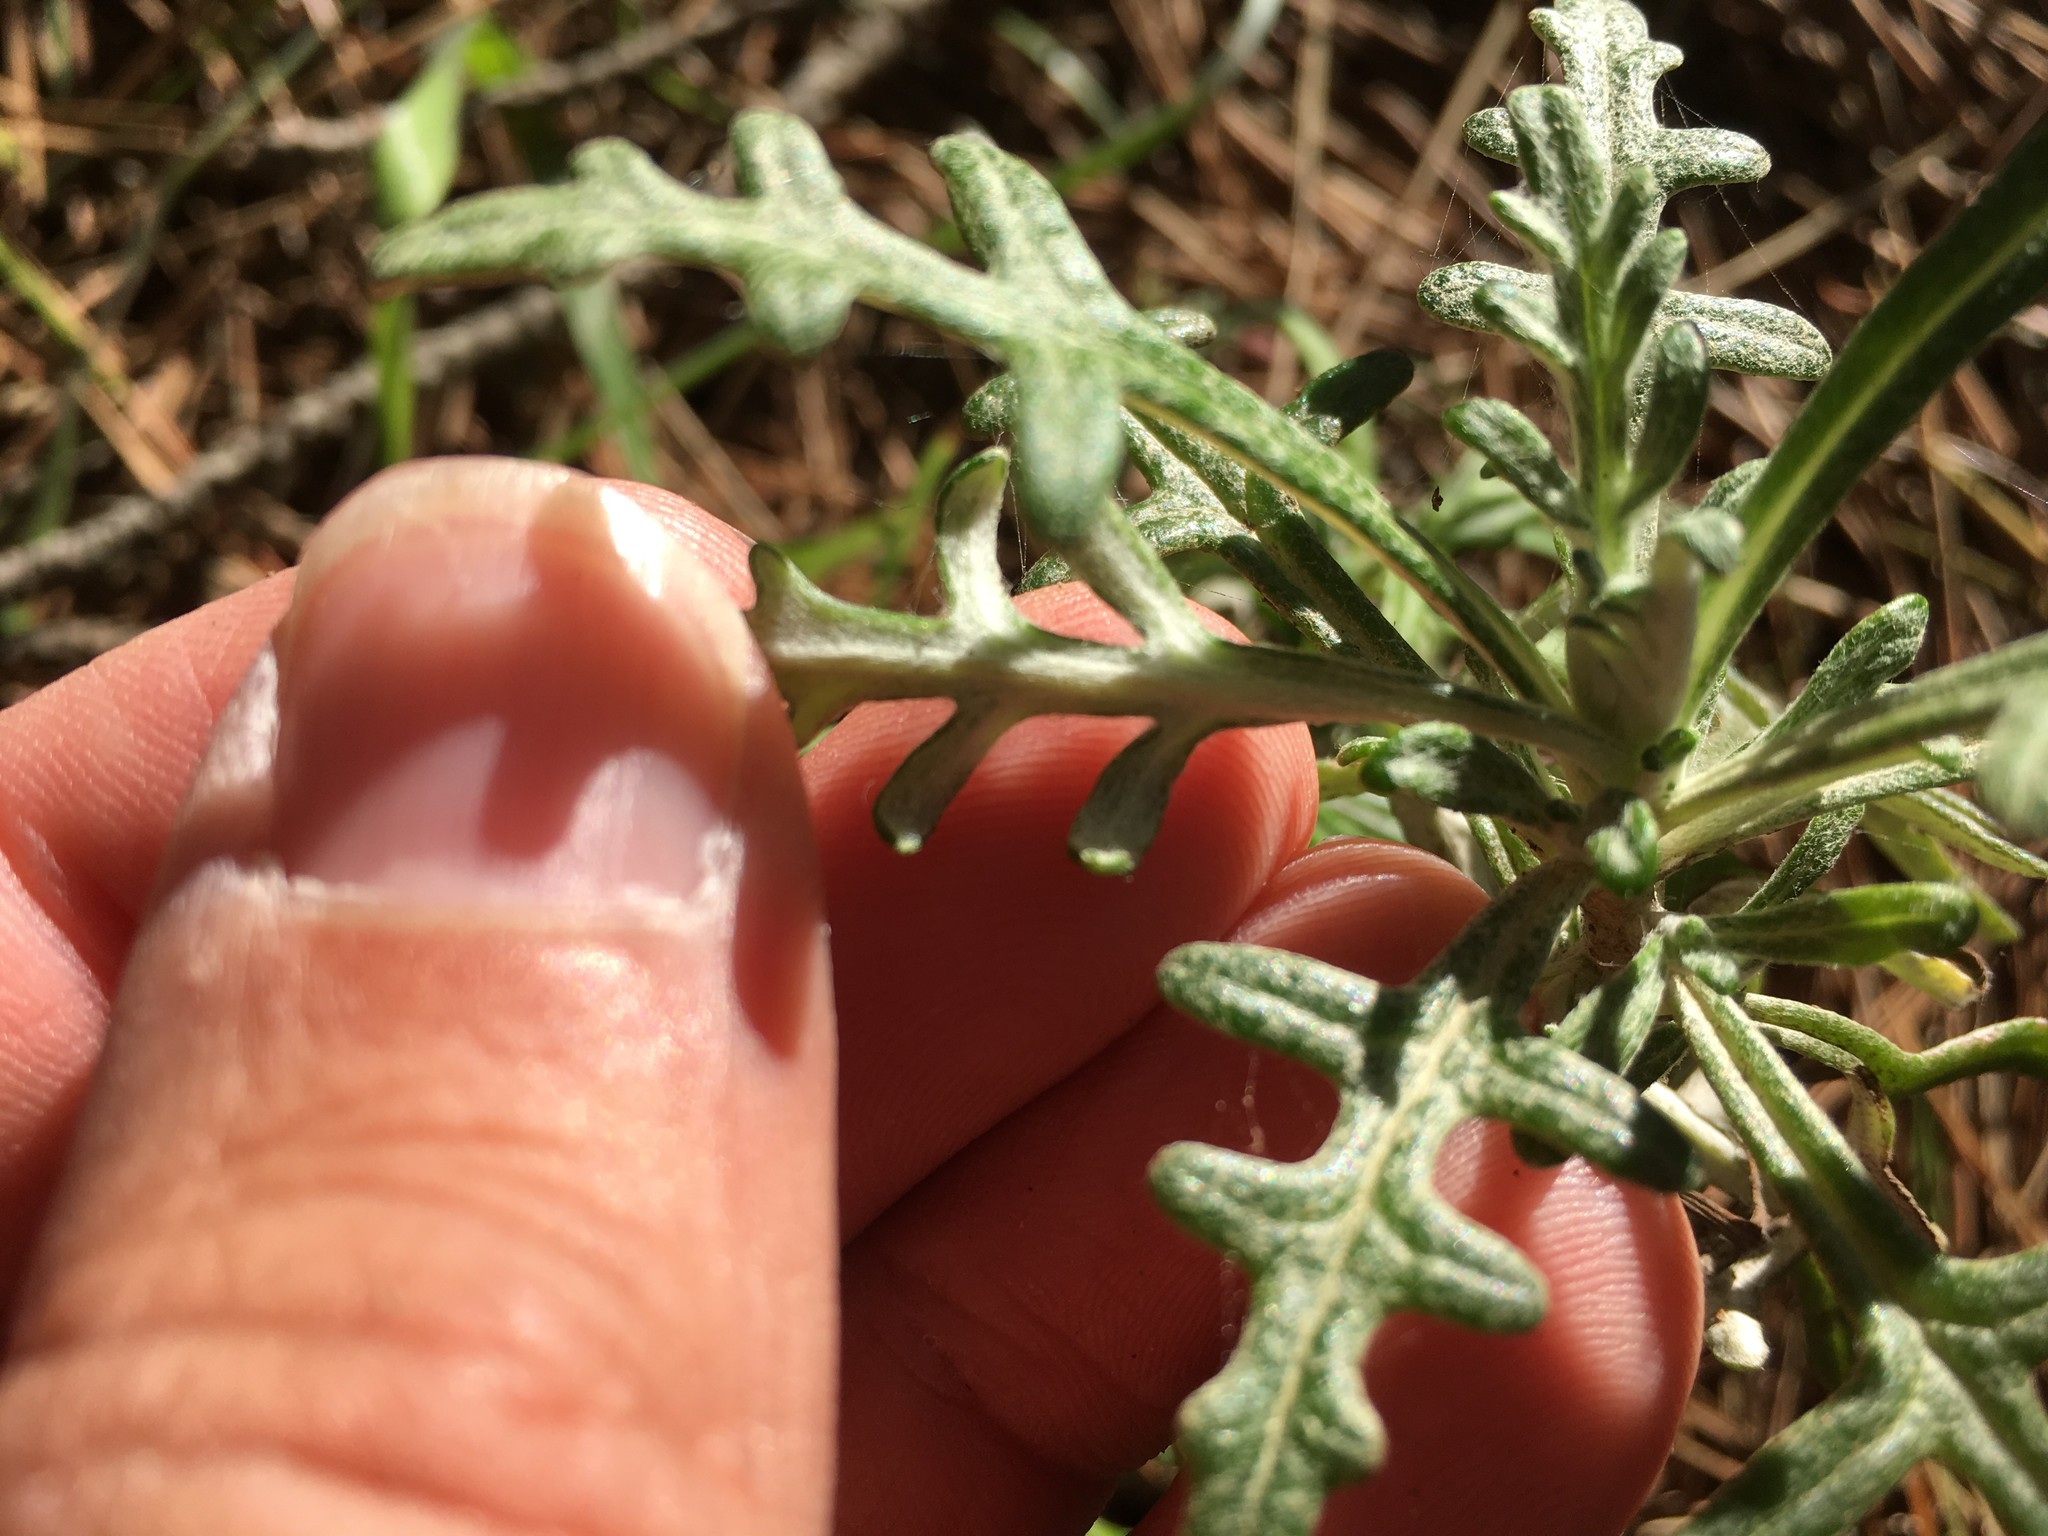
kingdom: Plantae
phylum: Tracheophyta
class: Magnoliopsida
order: Asterales
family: Asteraceae
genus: Eriophyllum
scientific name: Eriophyllum staechadifolium
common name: Lizardtail
